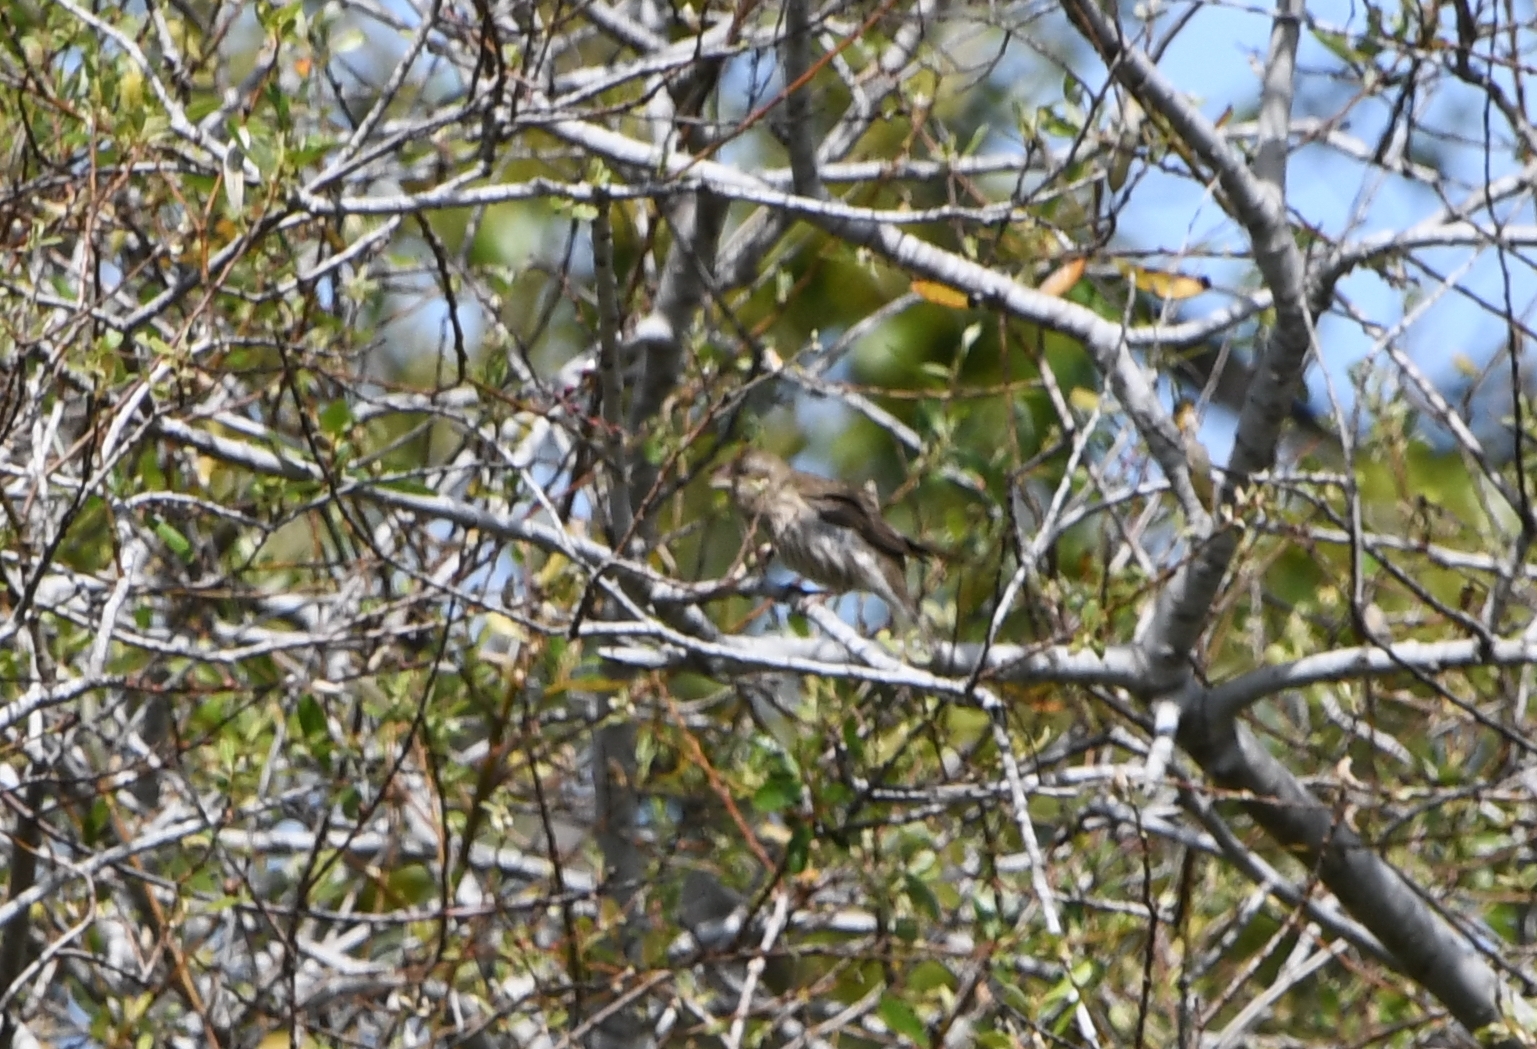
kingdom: Animalia
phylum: Chordata
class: Aves
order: Passeriformes
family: Fringillidae
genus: Haemorhous
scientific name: Haemorhous purpureus
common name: Purple finch
